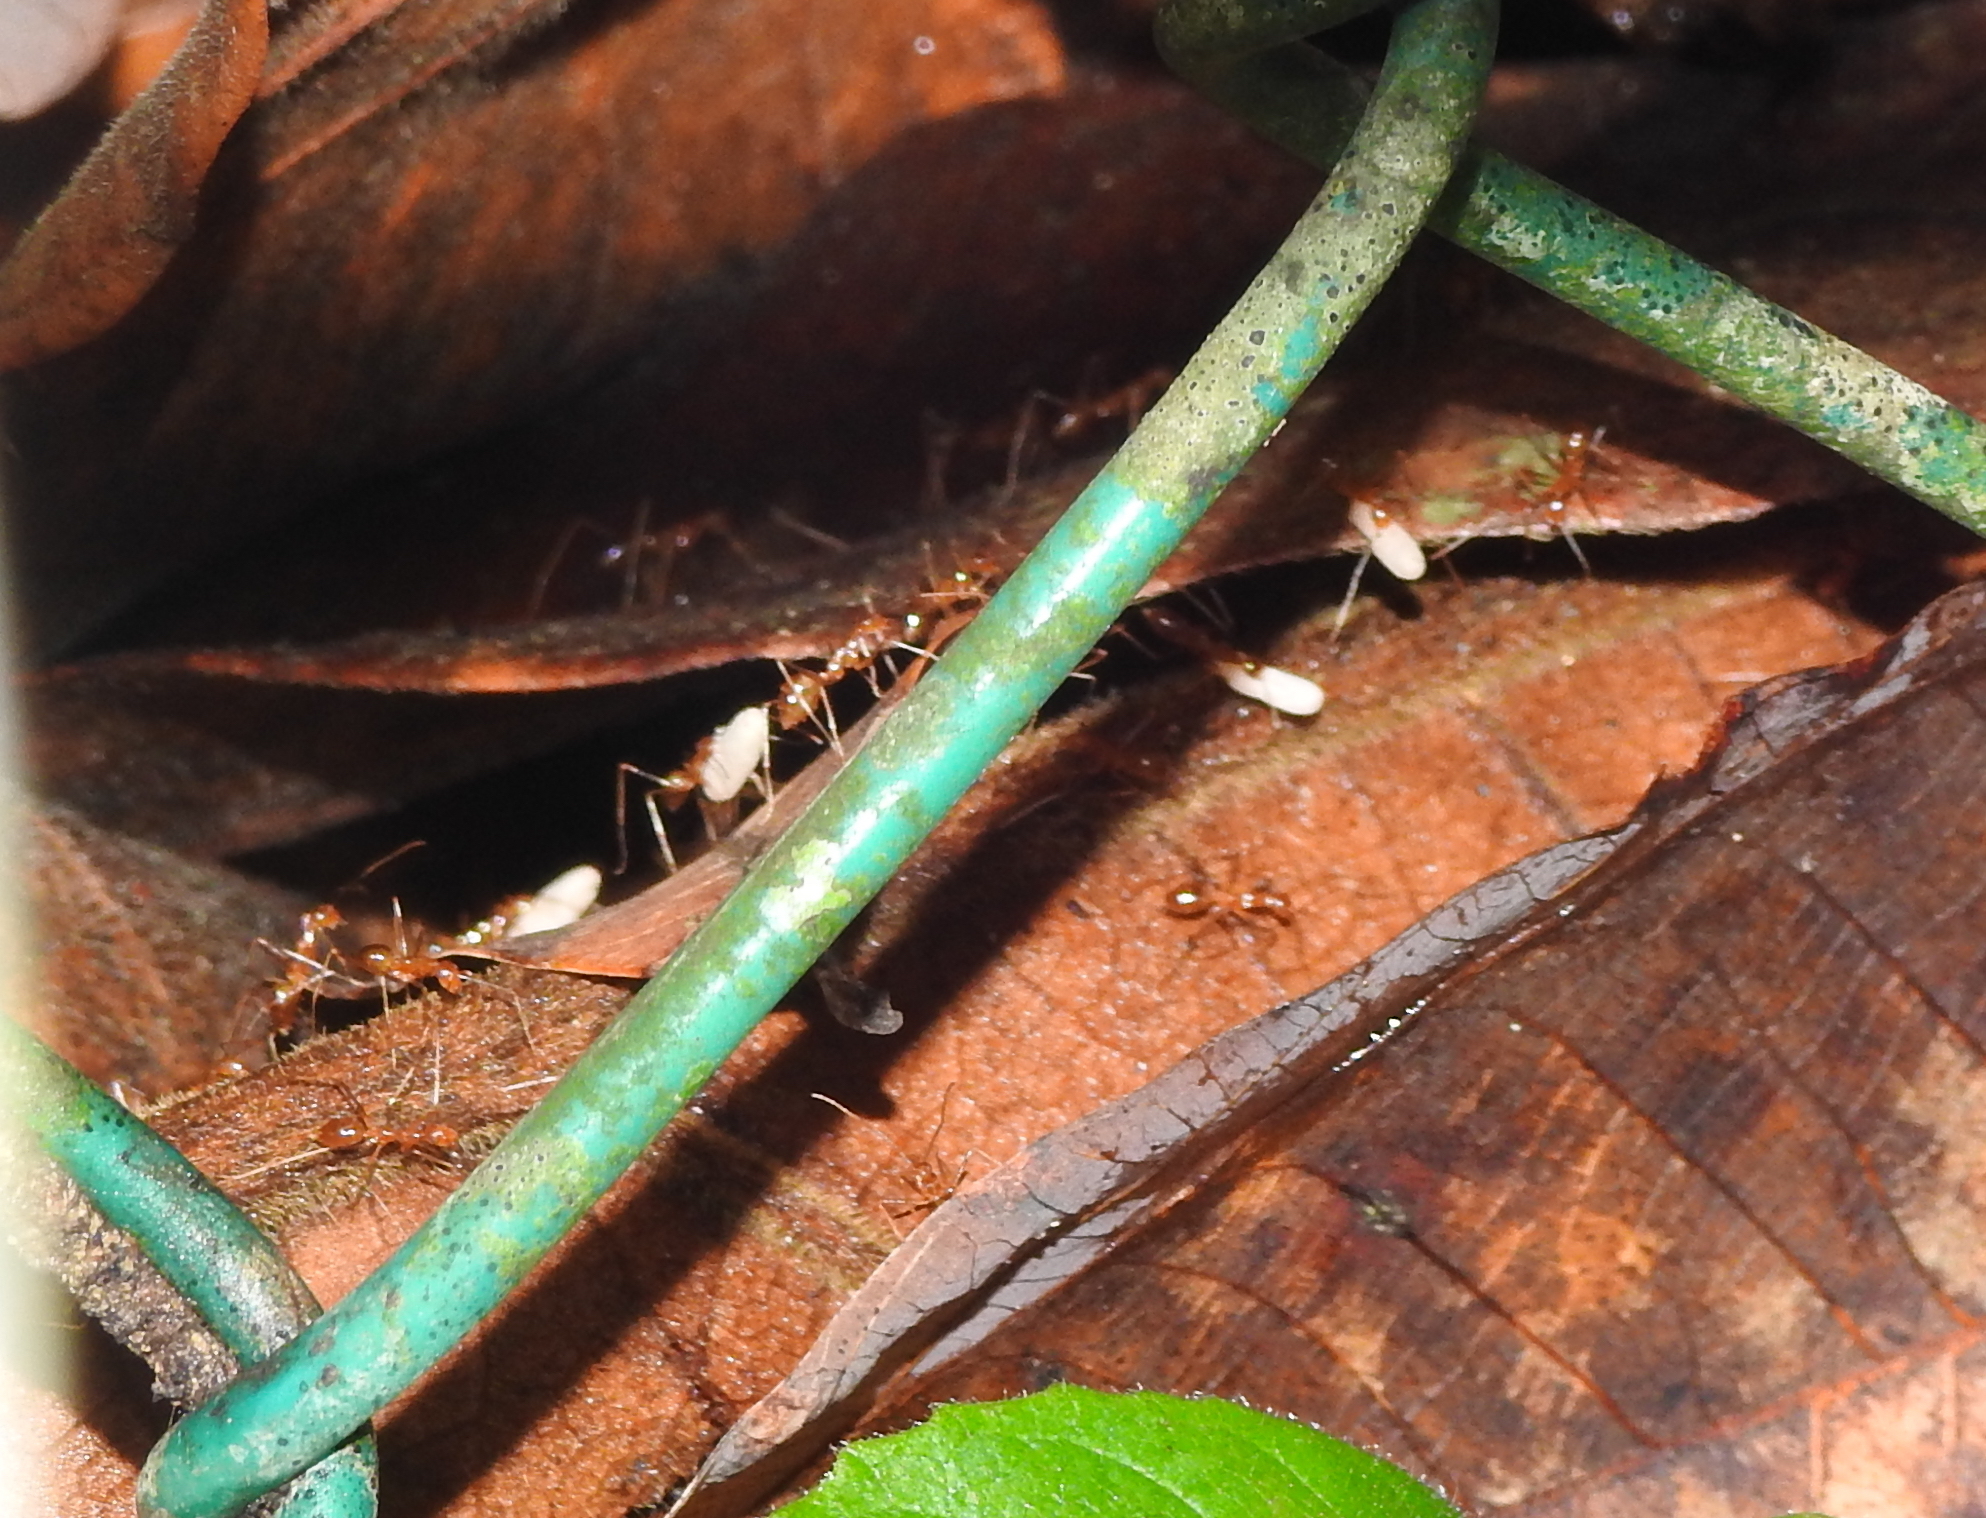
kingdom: Animalia
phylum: Arthropoda
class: Insecta
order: Hymenoptera
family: Formicidae
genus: Anoplolepis
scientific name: Anoplolepis gracilipes
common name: Ant
